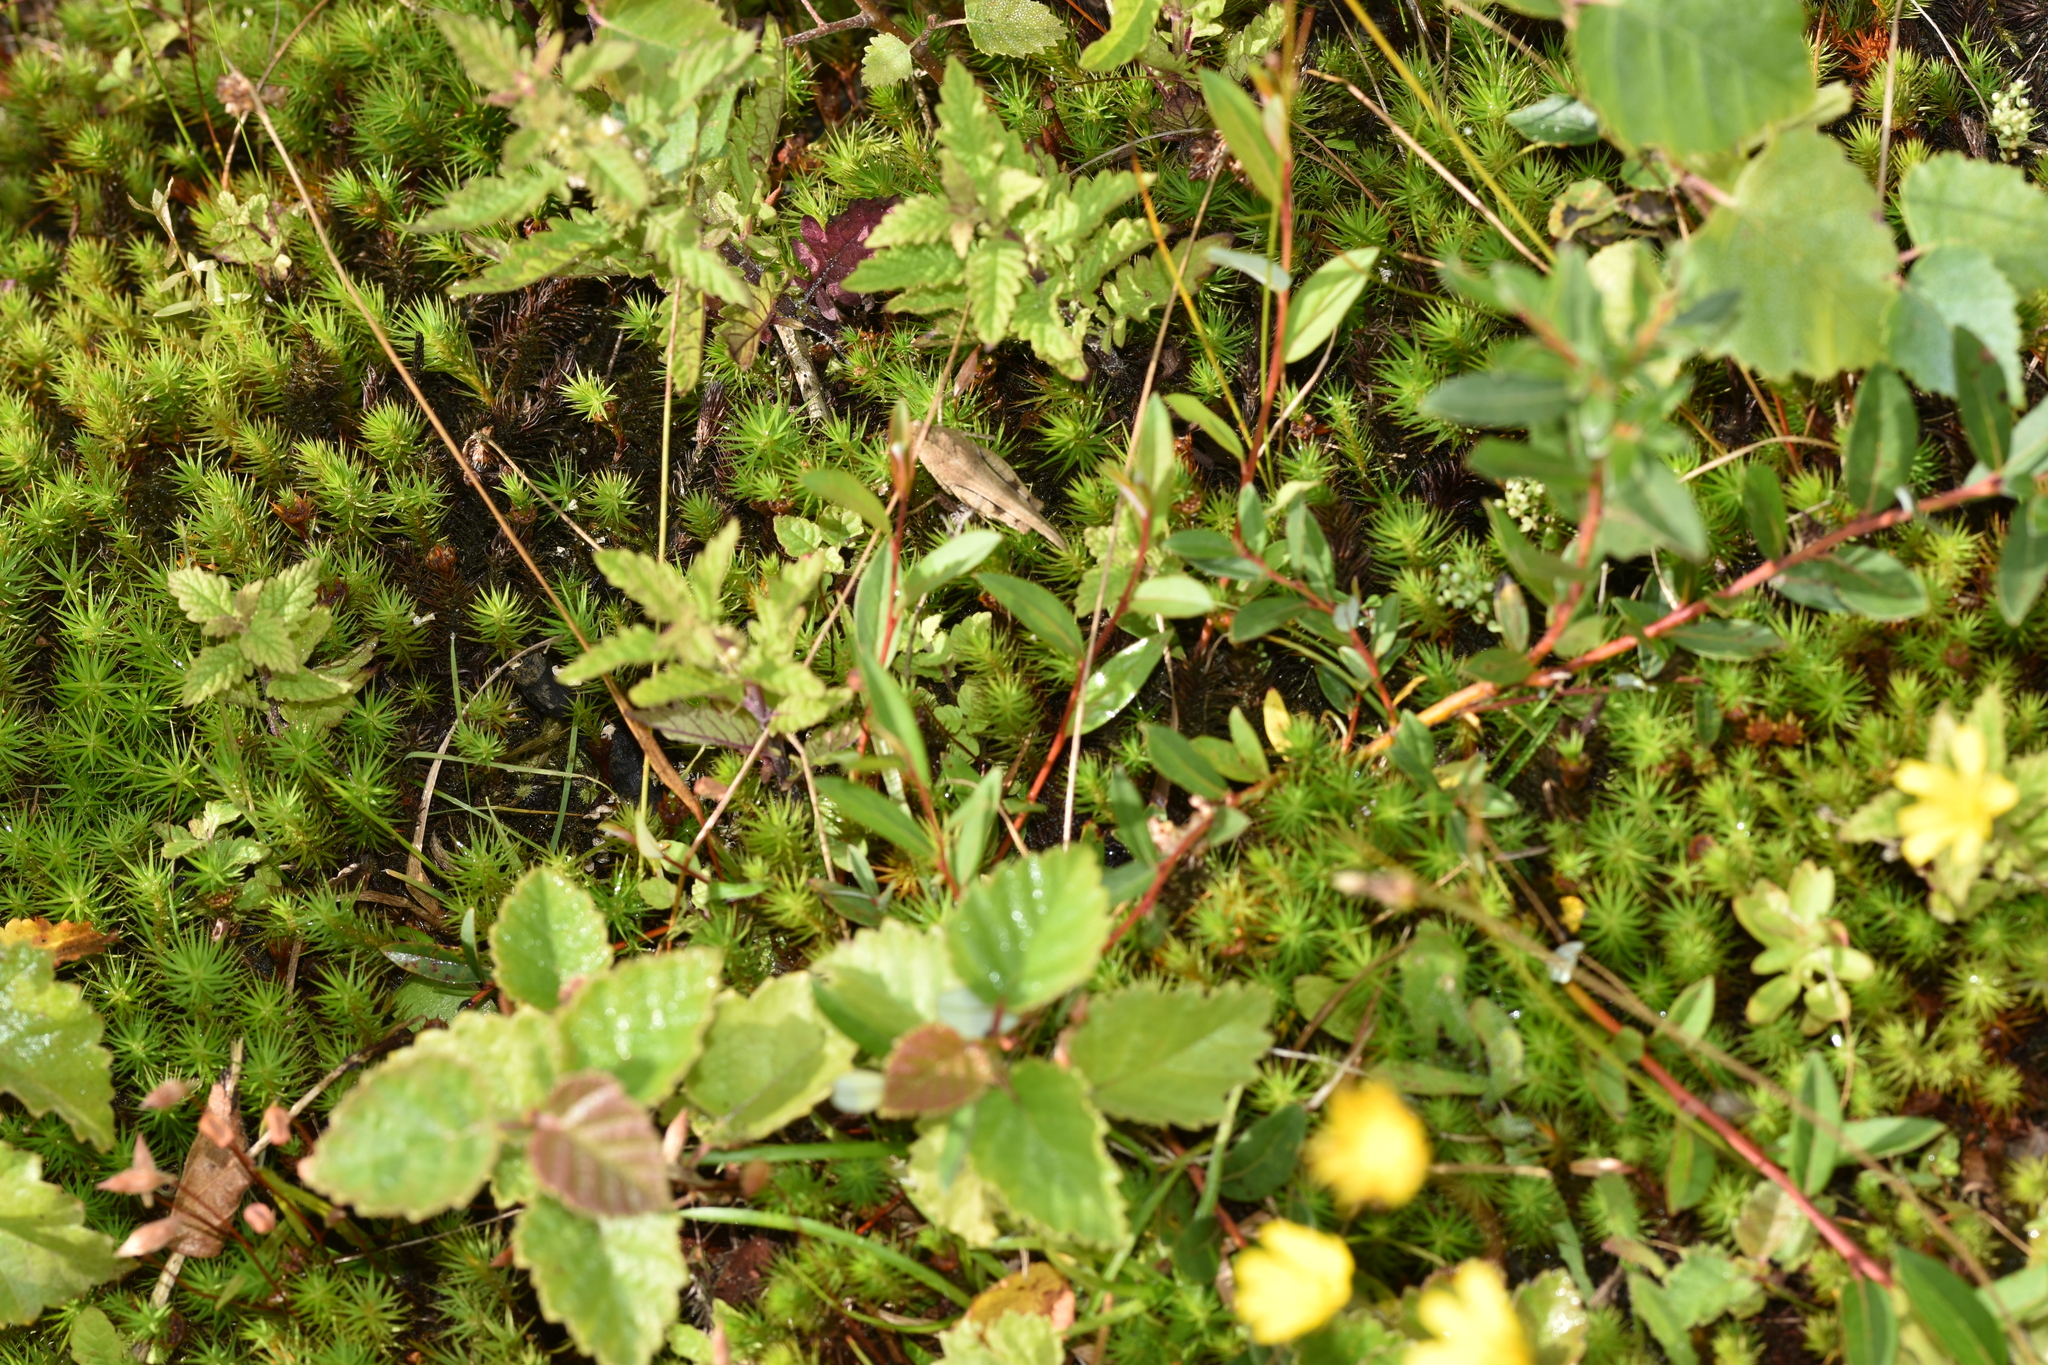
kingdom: Animalia
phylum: Arthropoda
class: Insecta
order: Orthoptera
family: Acrididae
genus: Oedipoda
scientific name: Oedipoda caerulescens
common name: Blue-winged grasshopper
